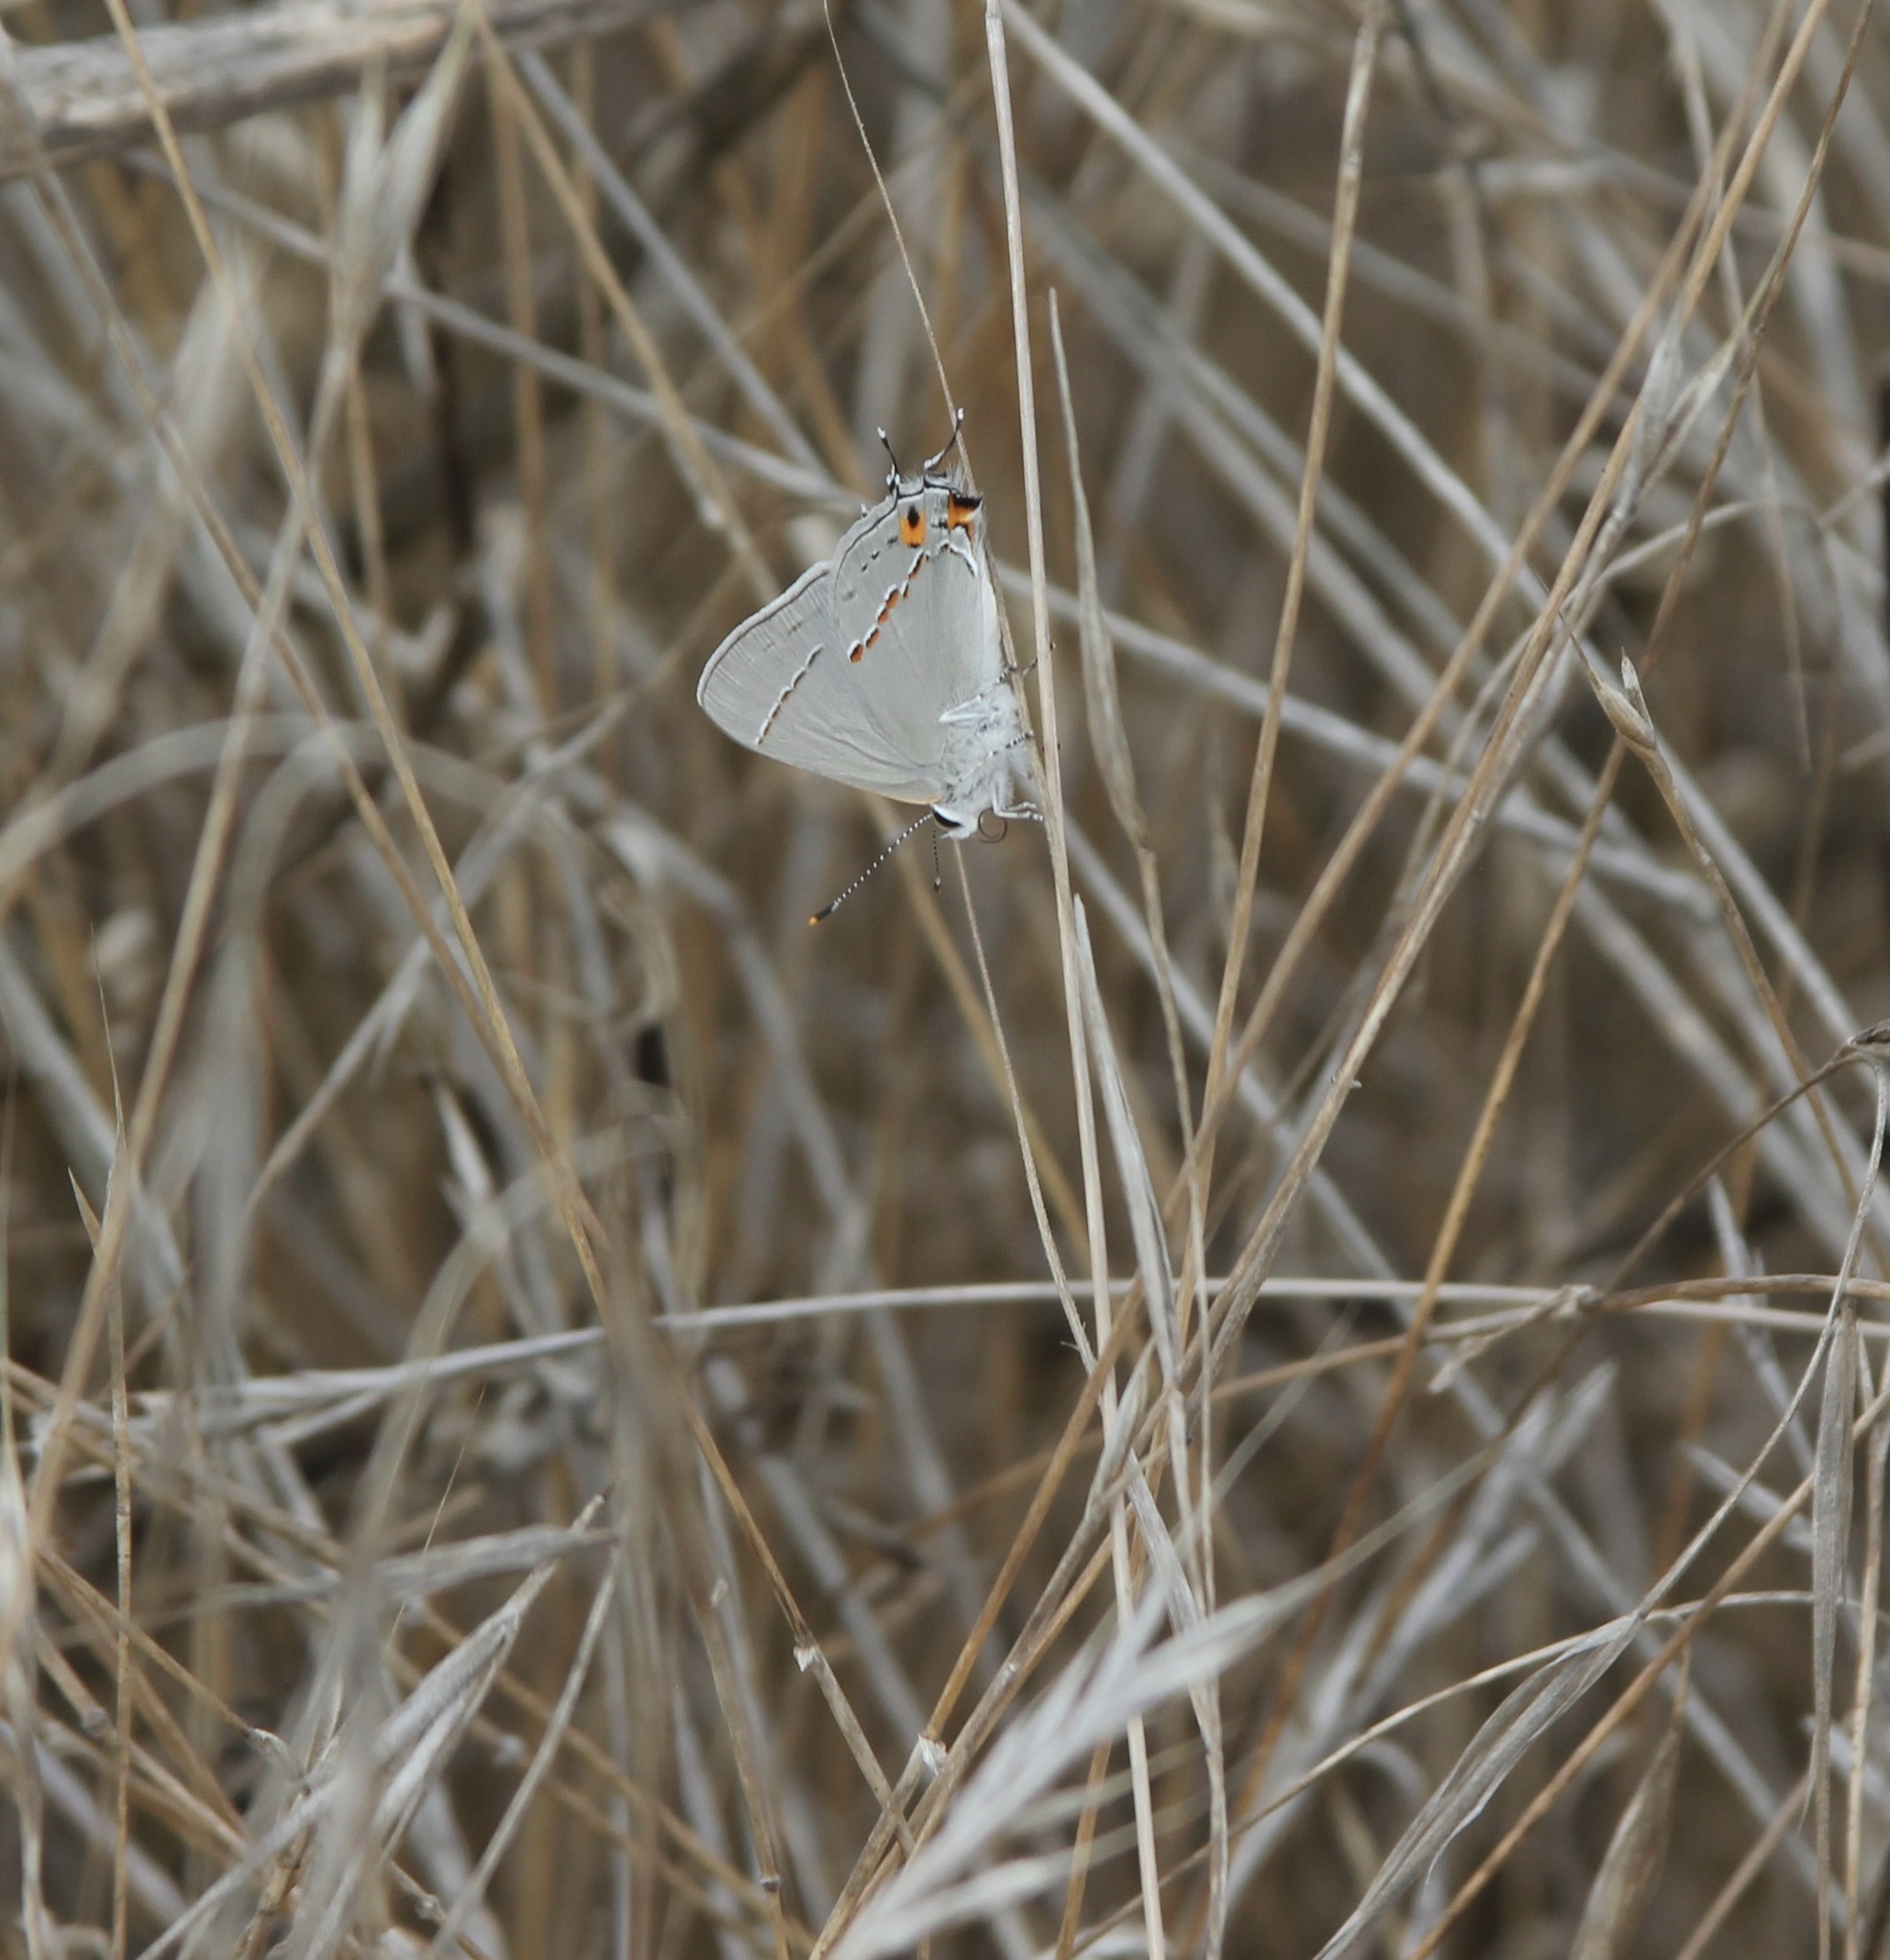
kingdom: Animalia
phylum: Arthropoda
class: Insecta
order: Lepidoptera
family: Lycaenidae
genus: Strymon
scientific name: Strymon melinus
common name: Gray hairstreak
